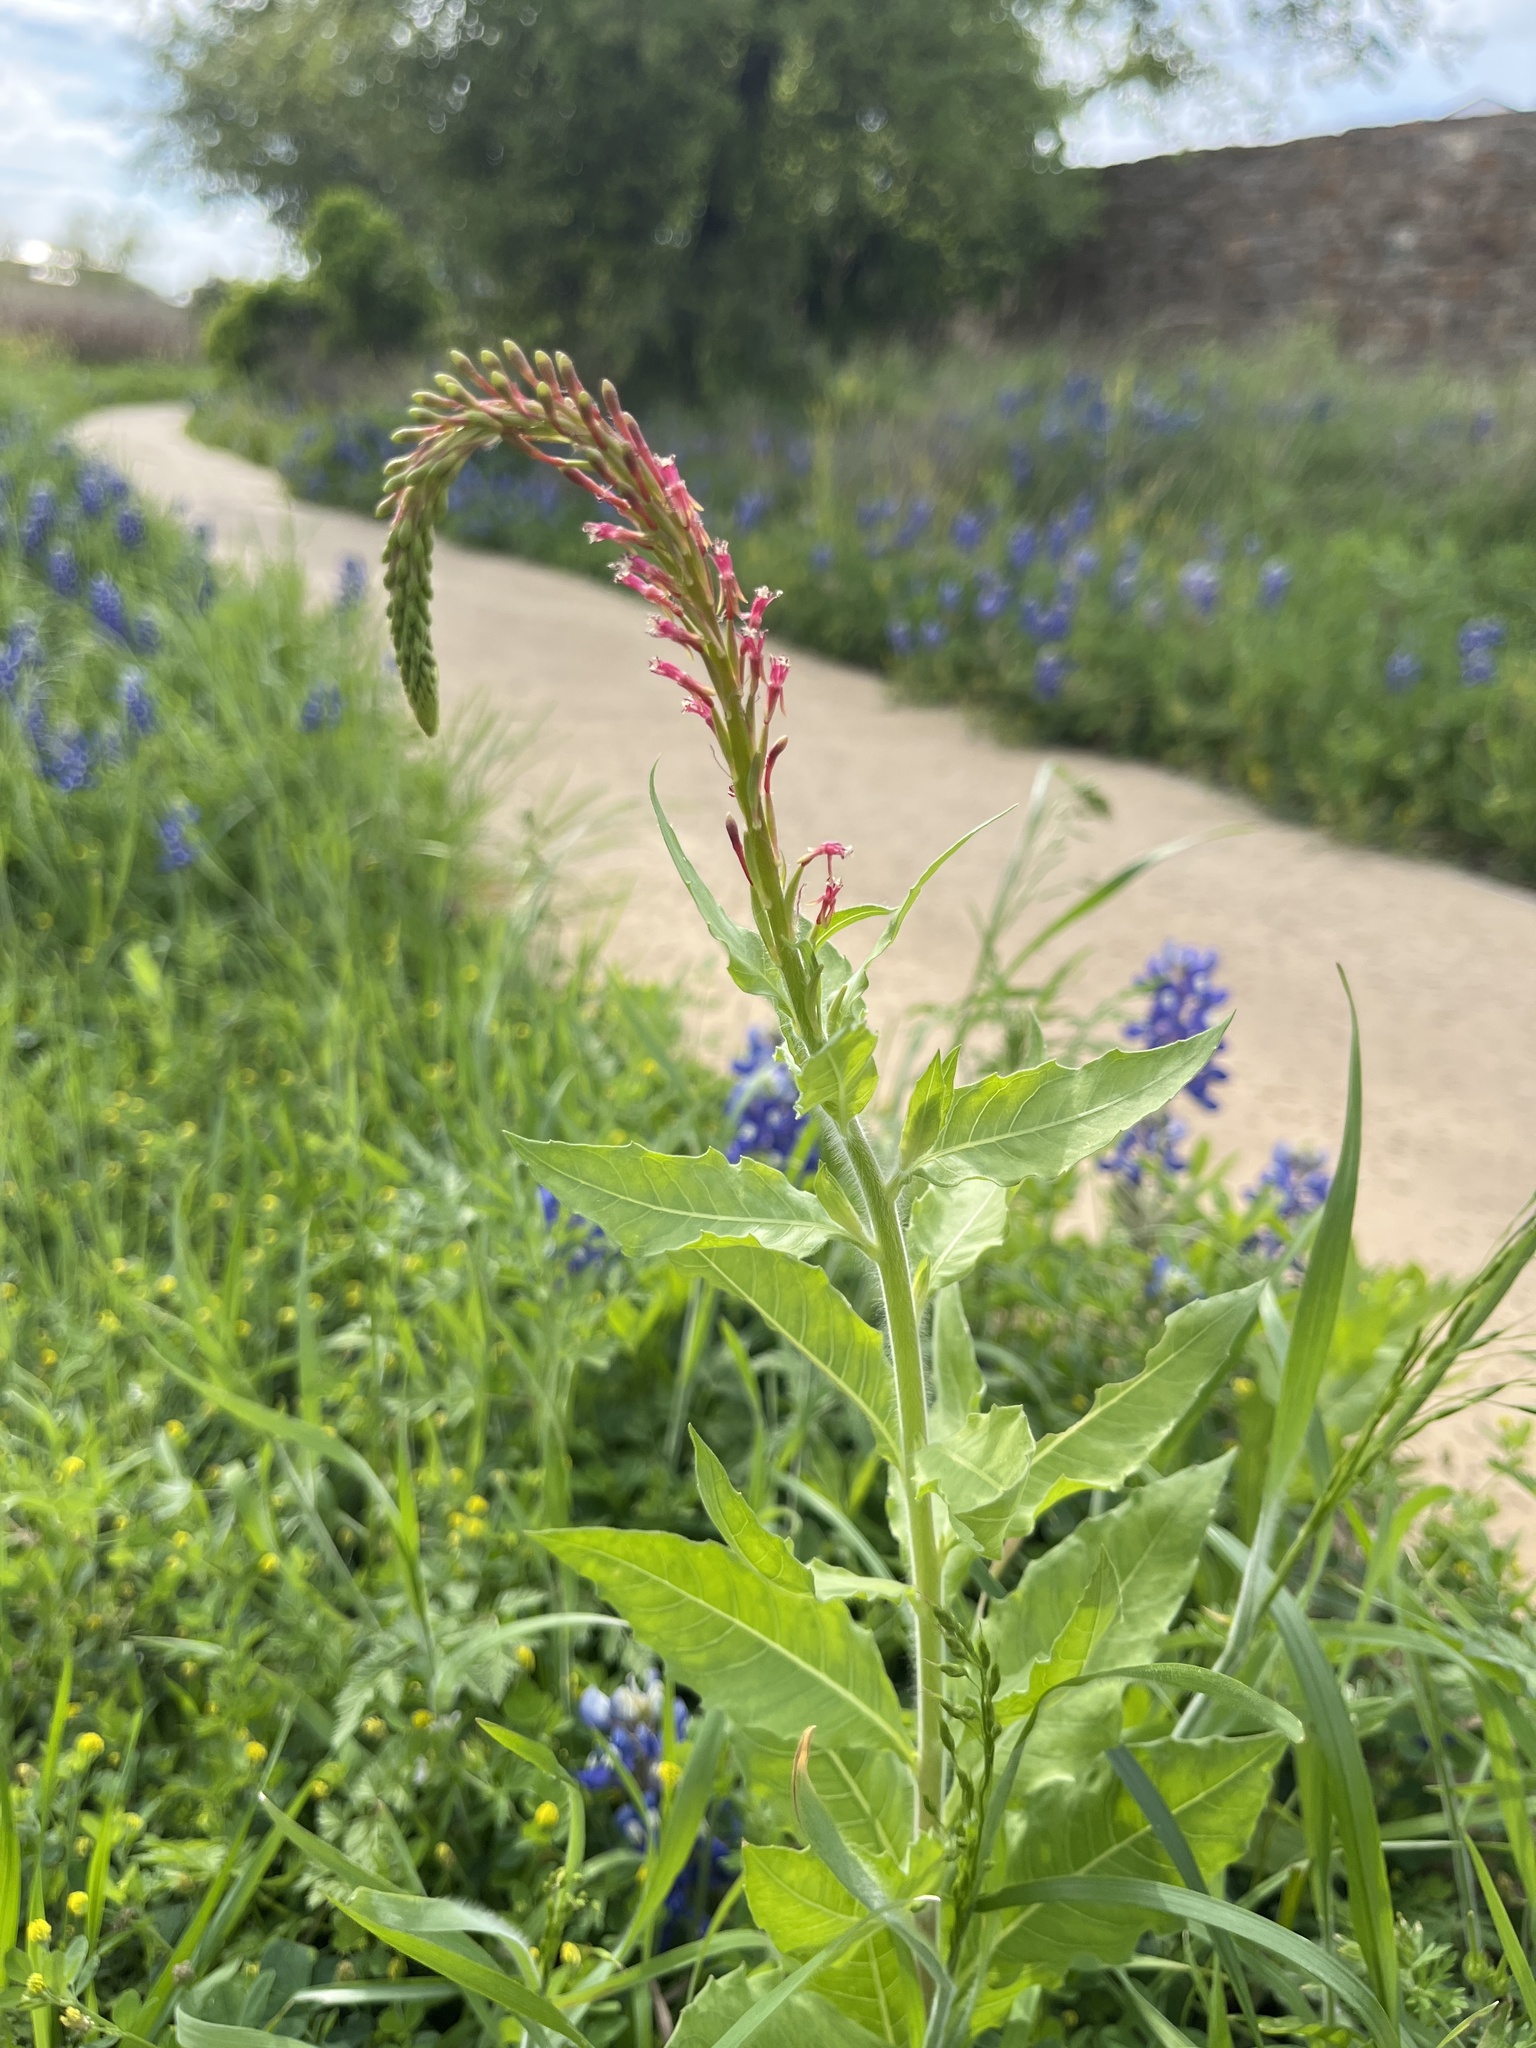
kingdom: Plantae
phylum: Tracheophyta
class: Magnoliopsida
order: Myrtales
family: Onagraceae
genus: Oenothera
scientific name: Oenothera curtiflora
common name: Velvetweed
